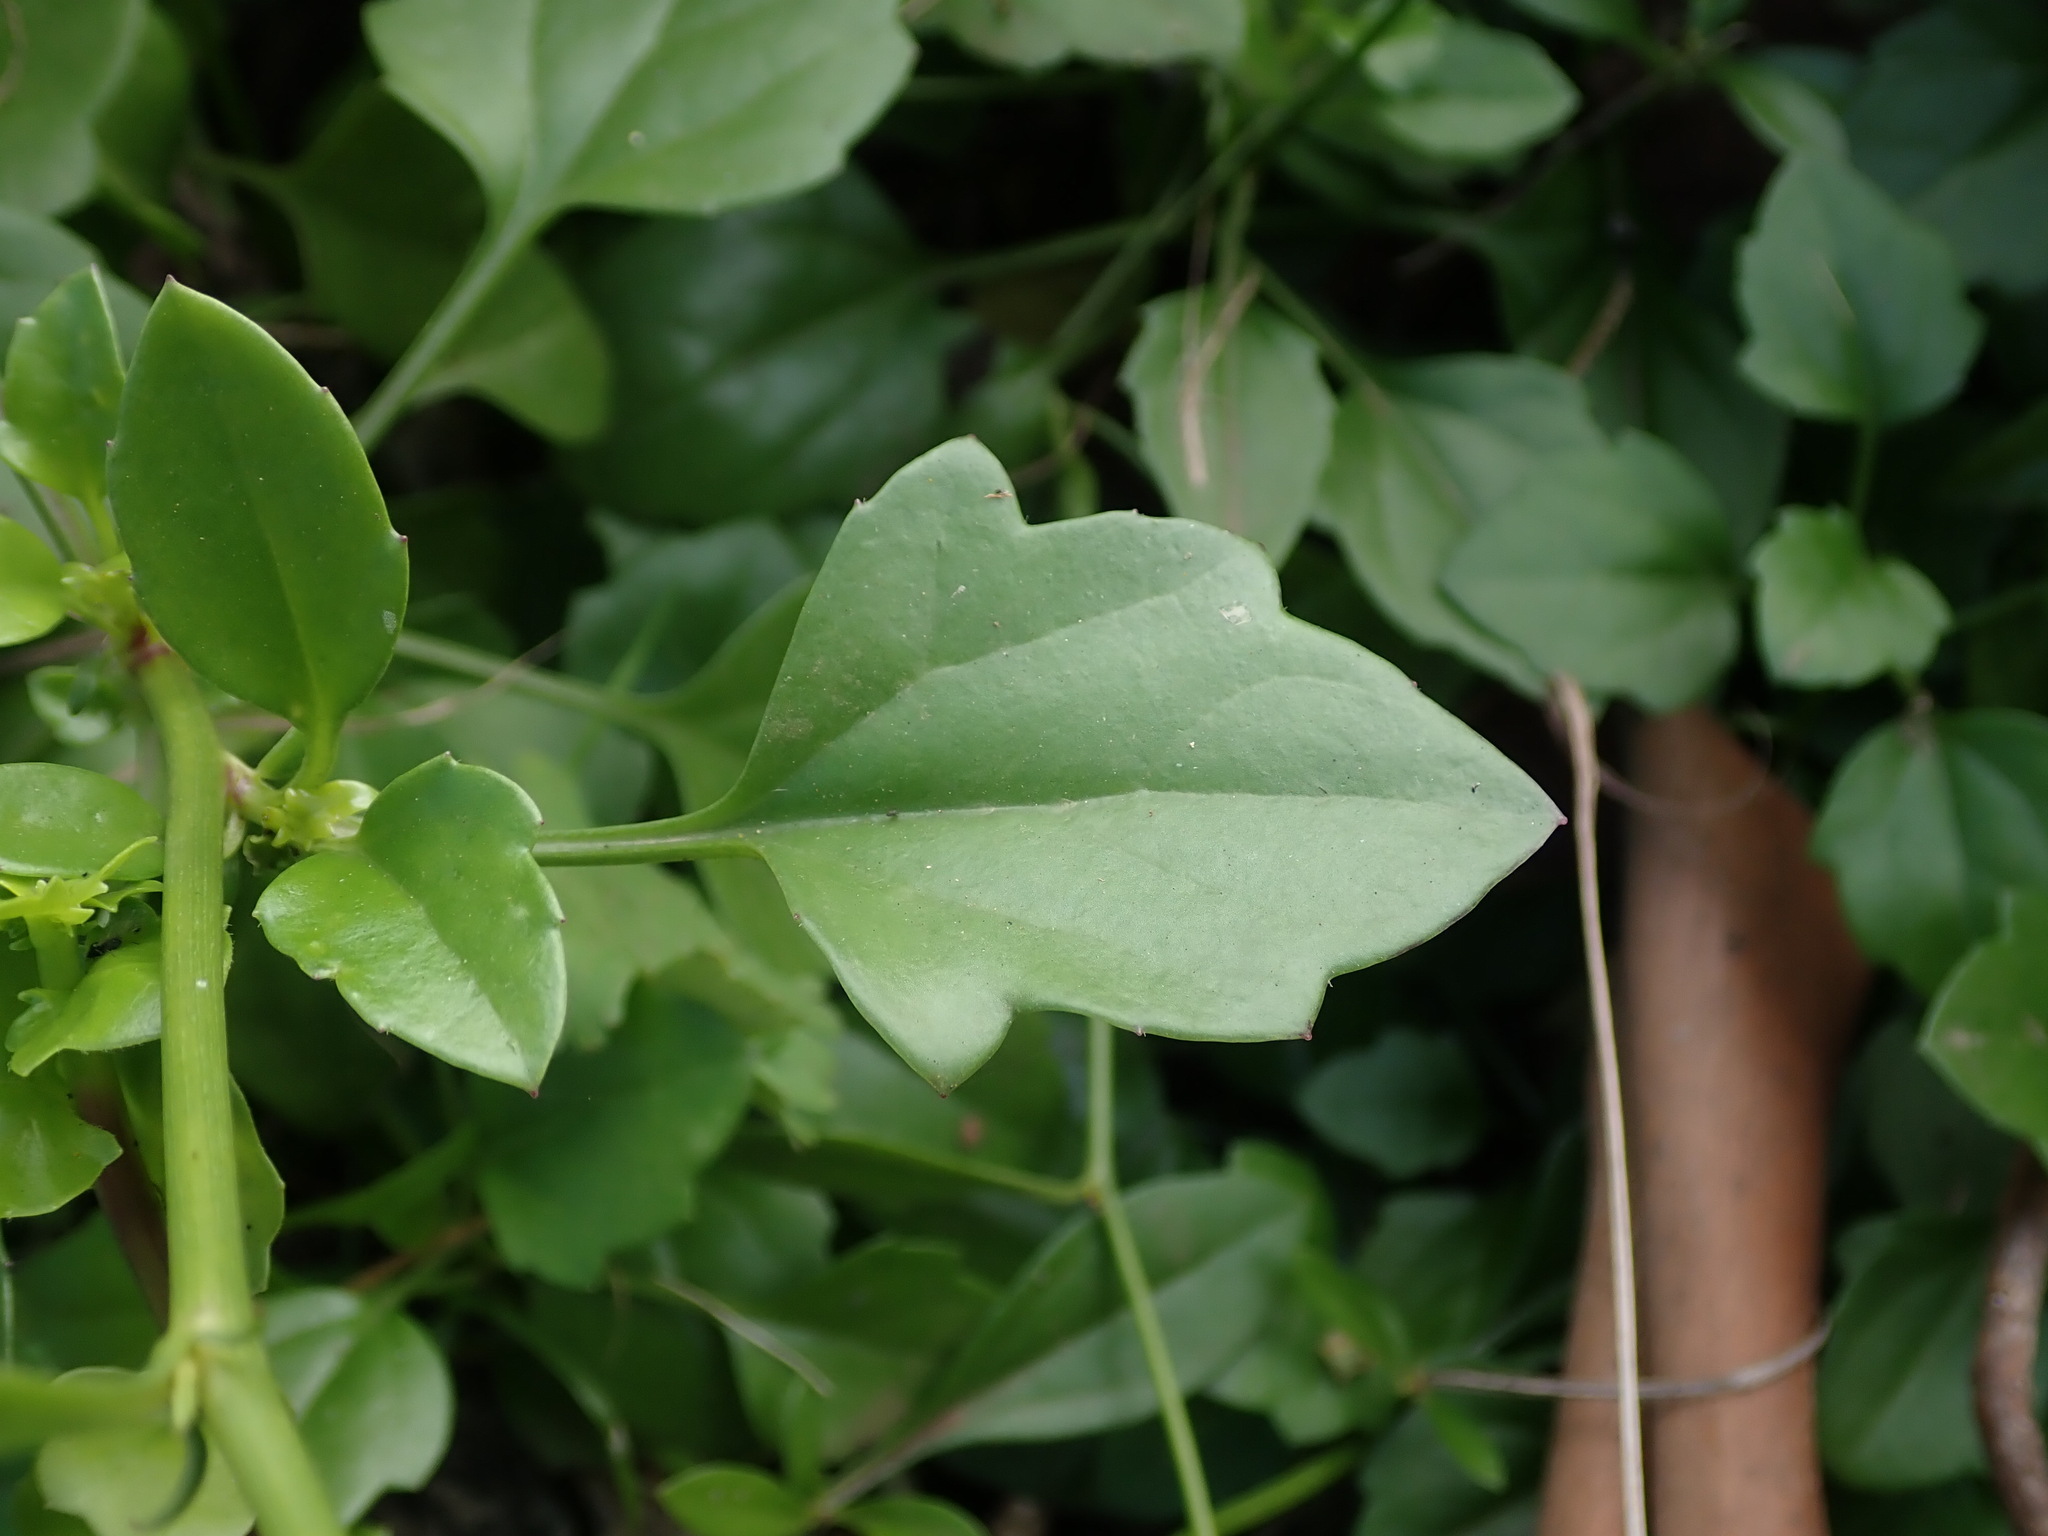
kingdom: Plantae
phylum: Tracheophyta
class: Magnoliopsida
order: Asterales
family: Asteraceae
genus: Senecio
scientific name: Senecio angulatus
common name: Climbing groundsel
